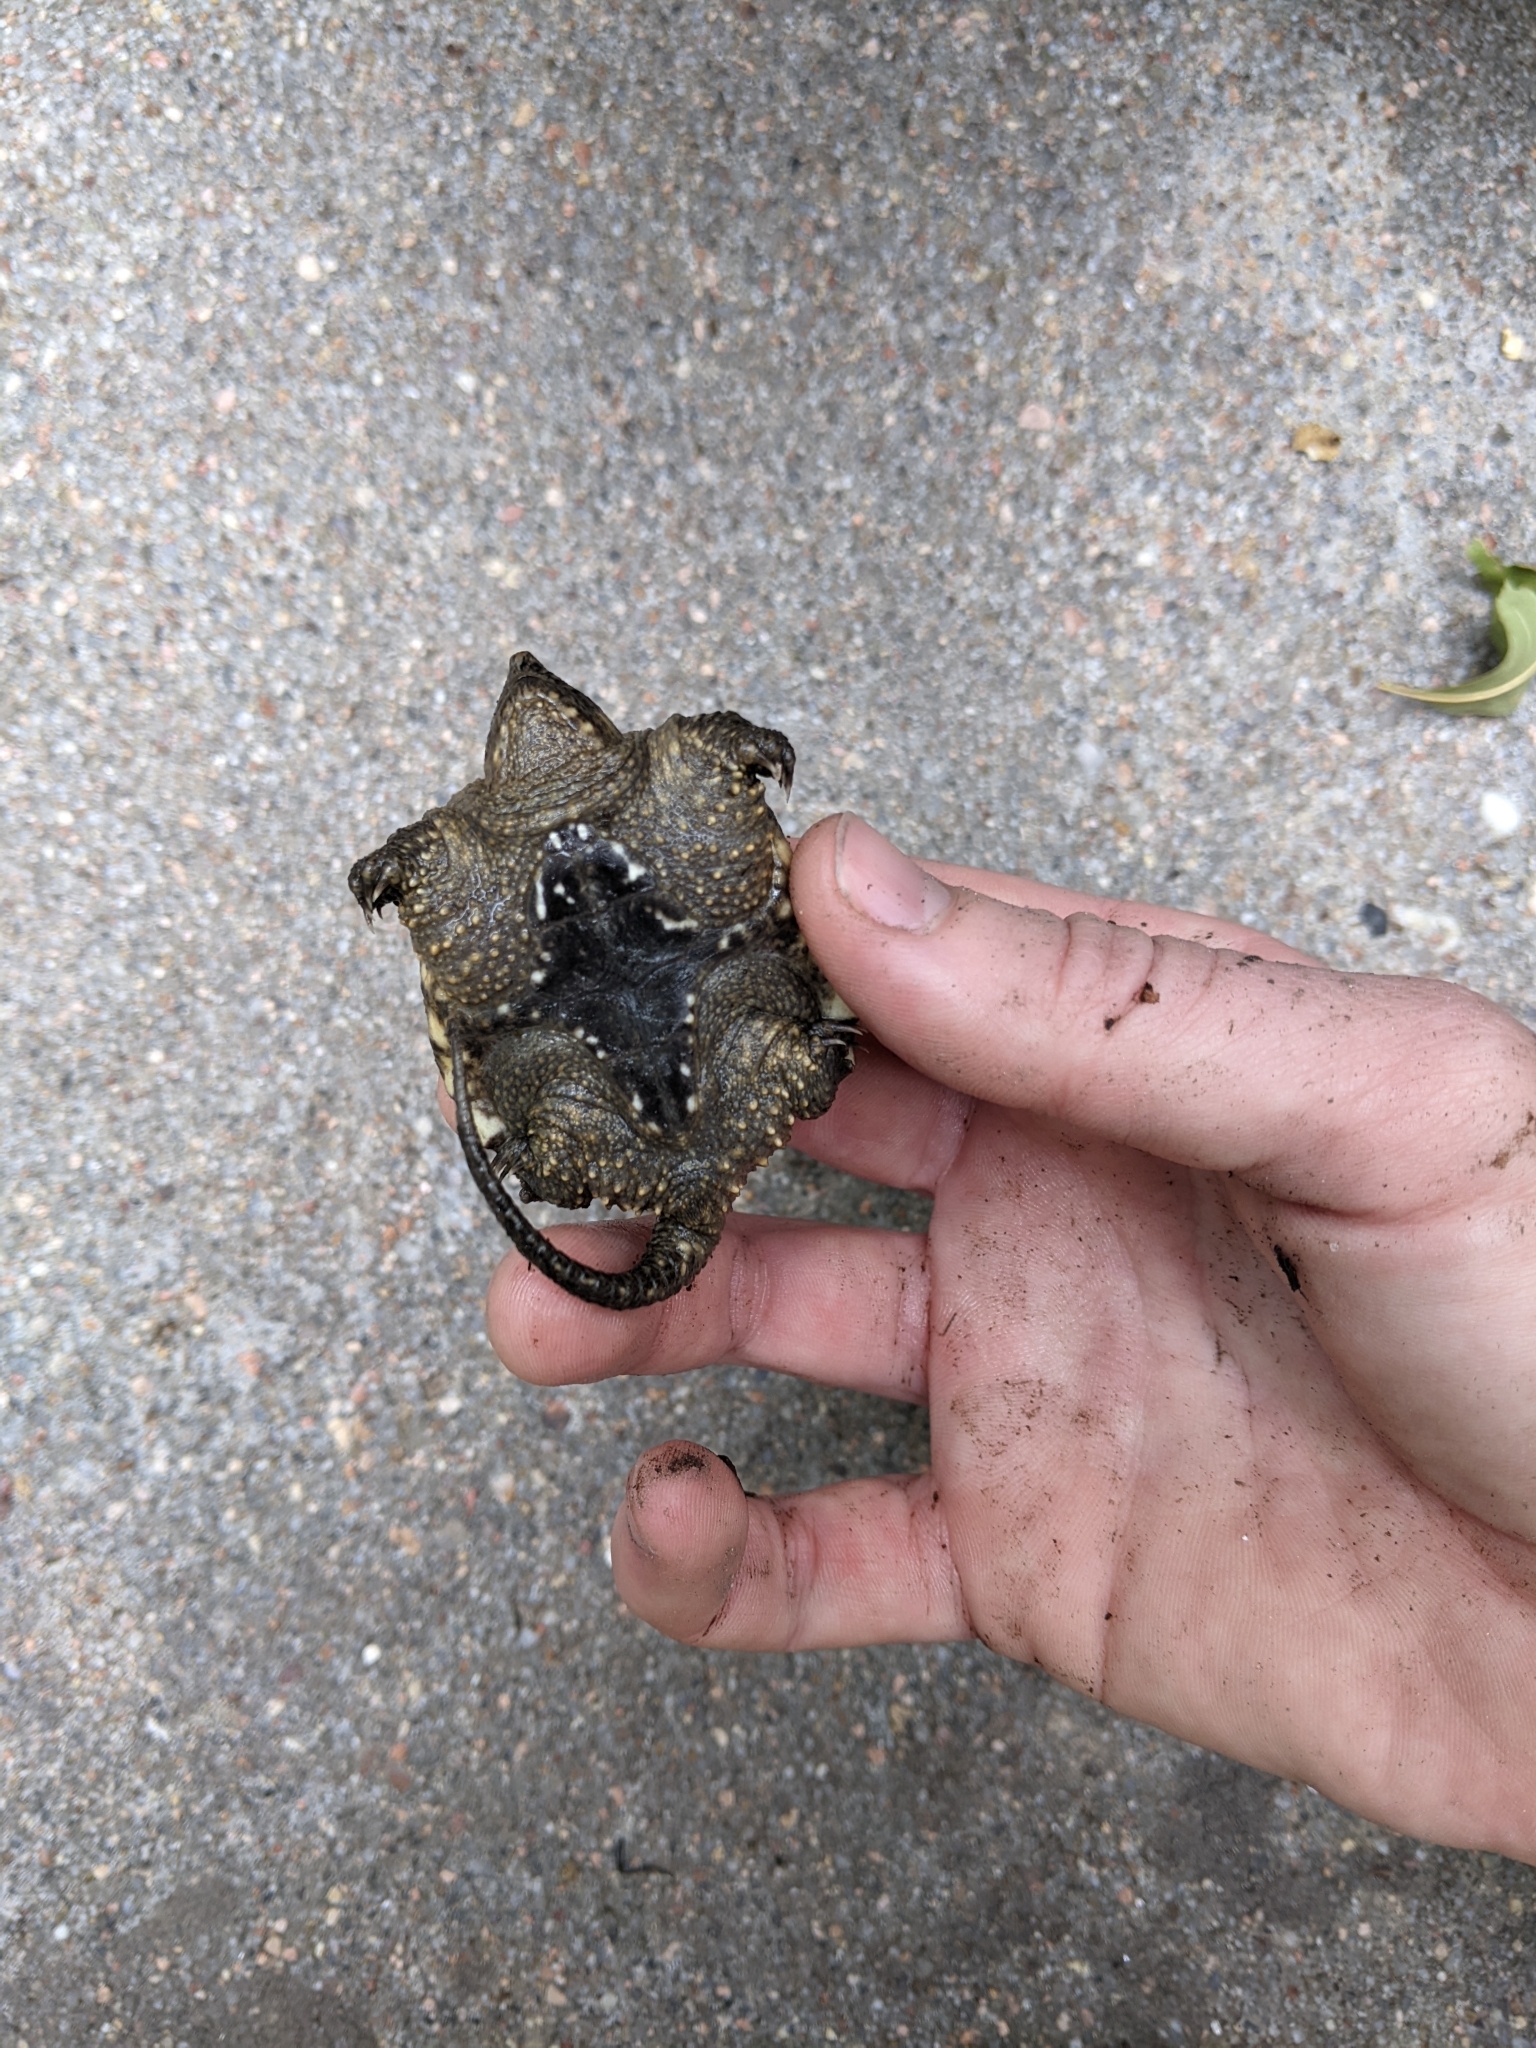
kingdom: Animalia
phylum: Chordata
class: Testudines
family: Chelydridae
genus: Chelydra
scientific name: Chelydra serpentina
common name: Common snapping turtle
